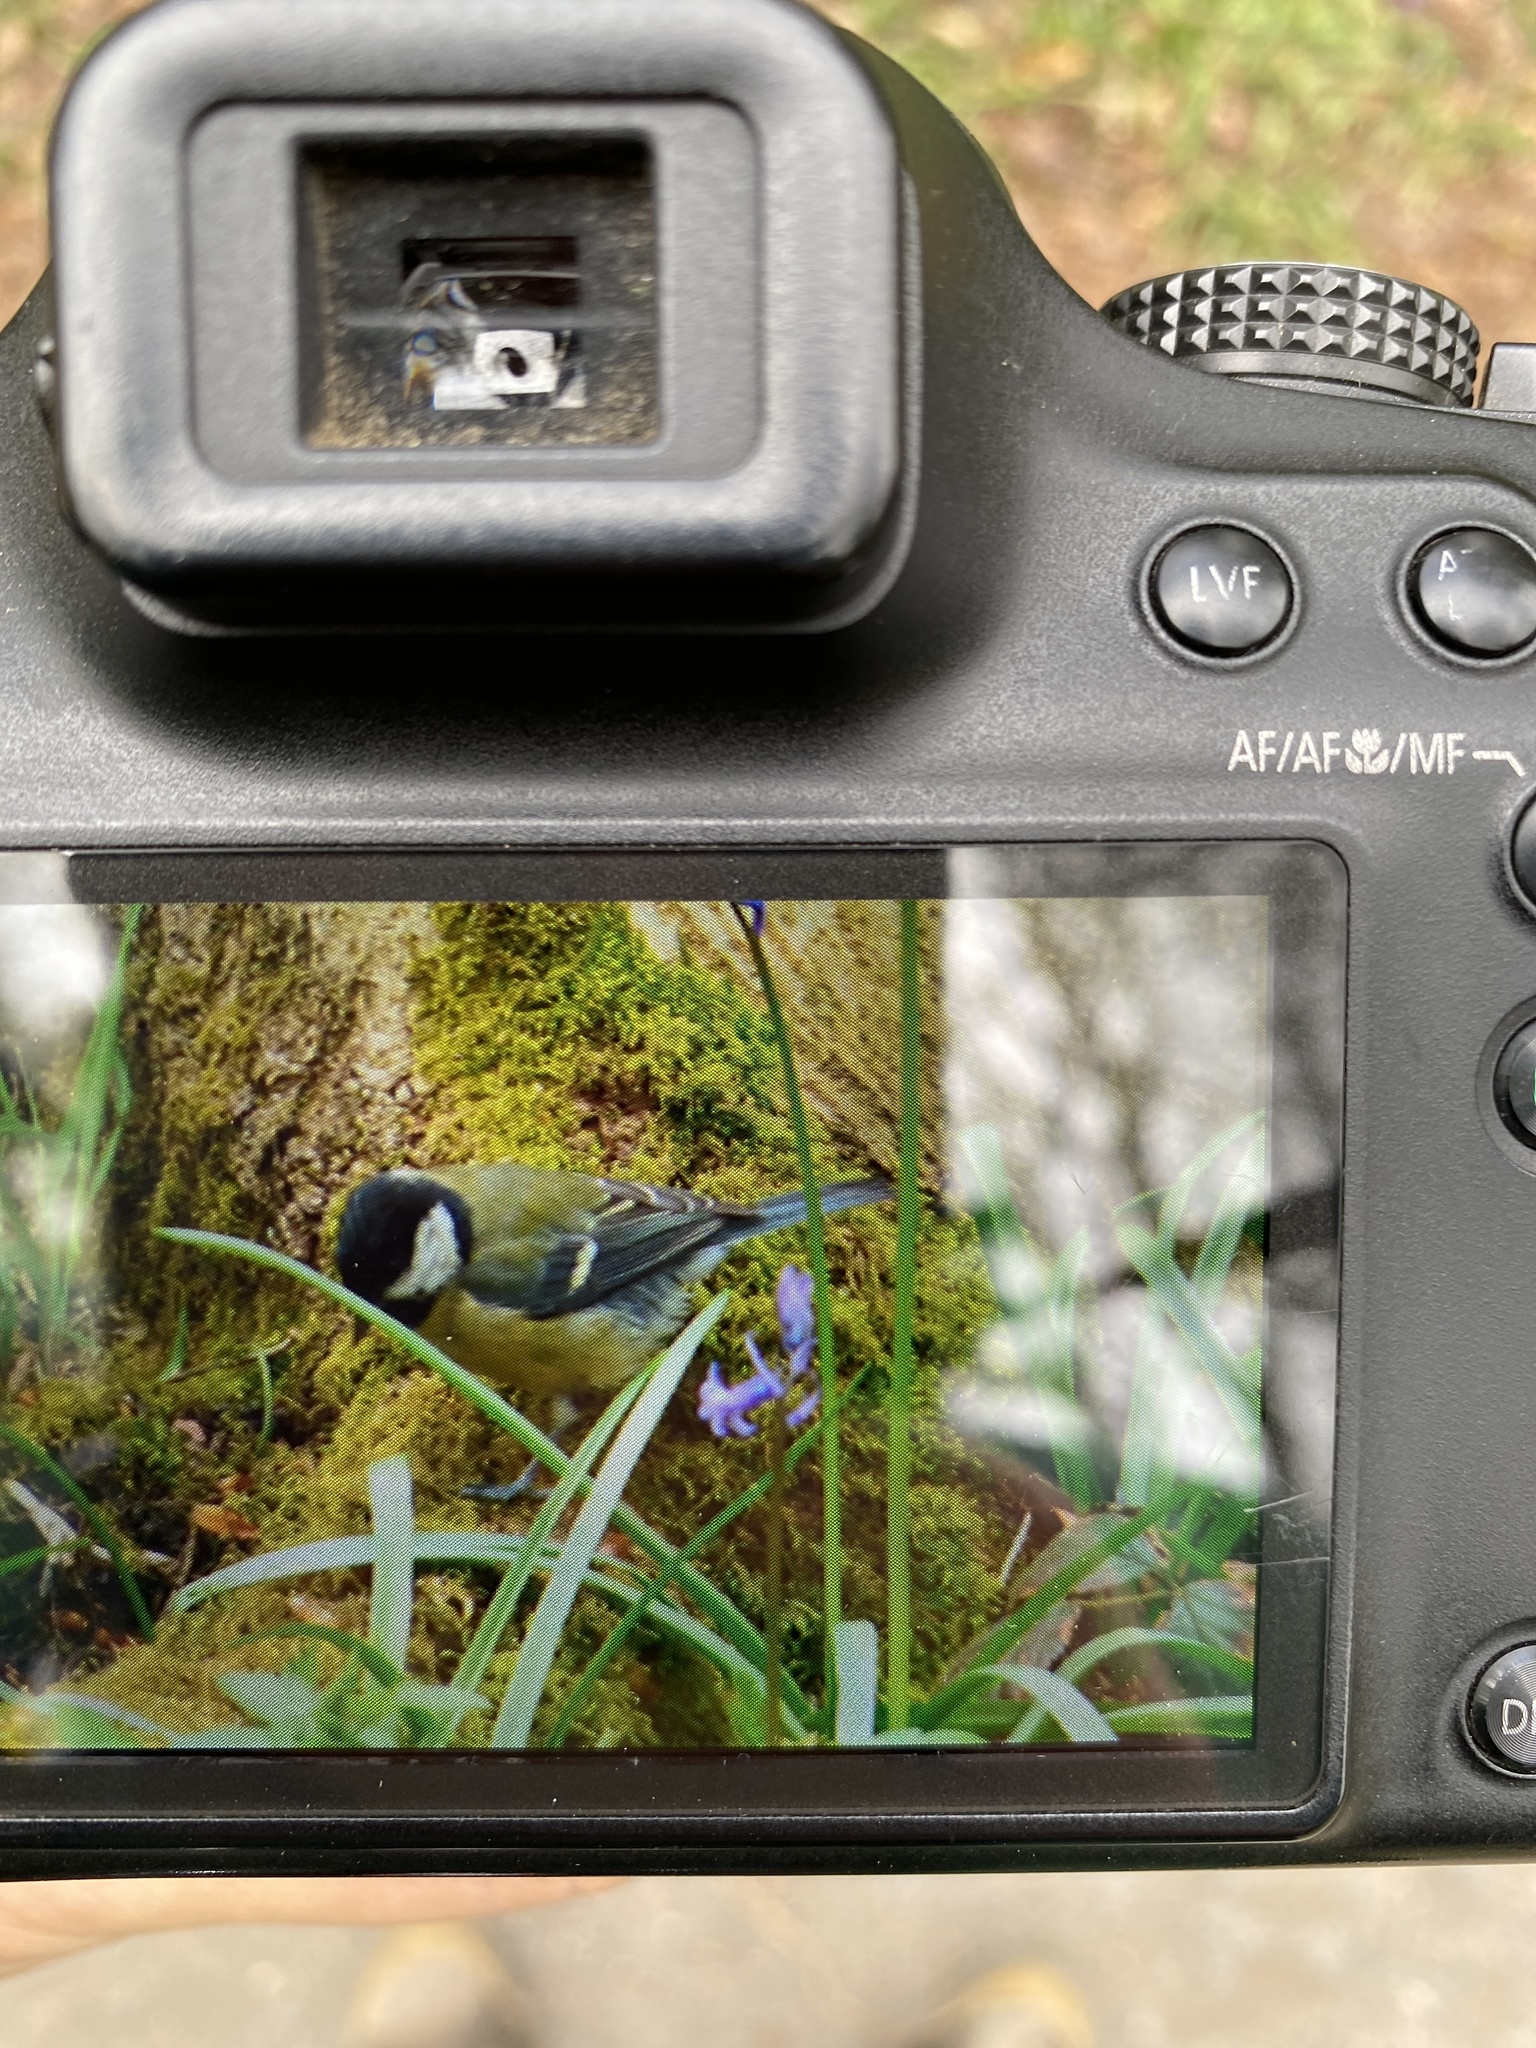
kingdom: Animalia
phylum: Chordata
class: Aves
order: Passeriformes
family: Paridae
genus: Parus
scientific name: Parus major
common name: Great tit
